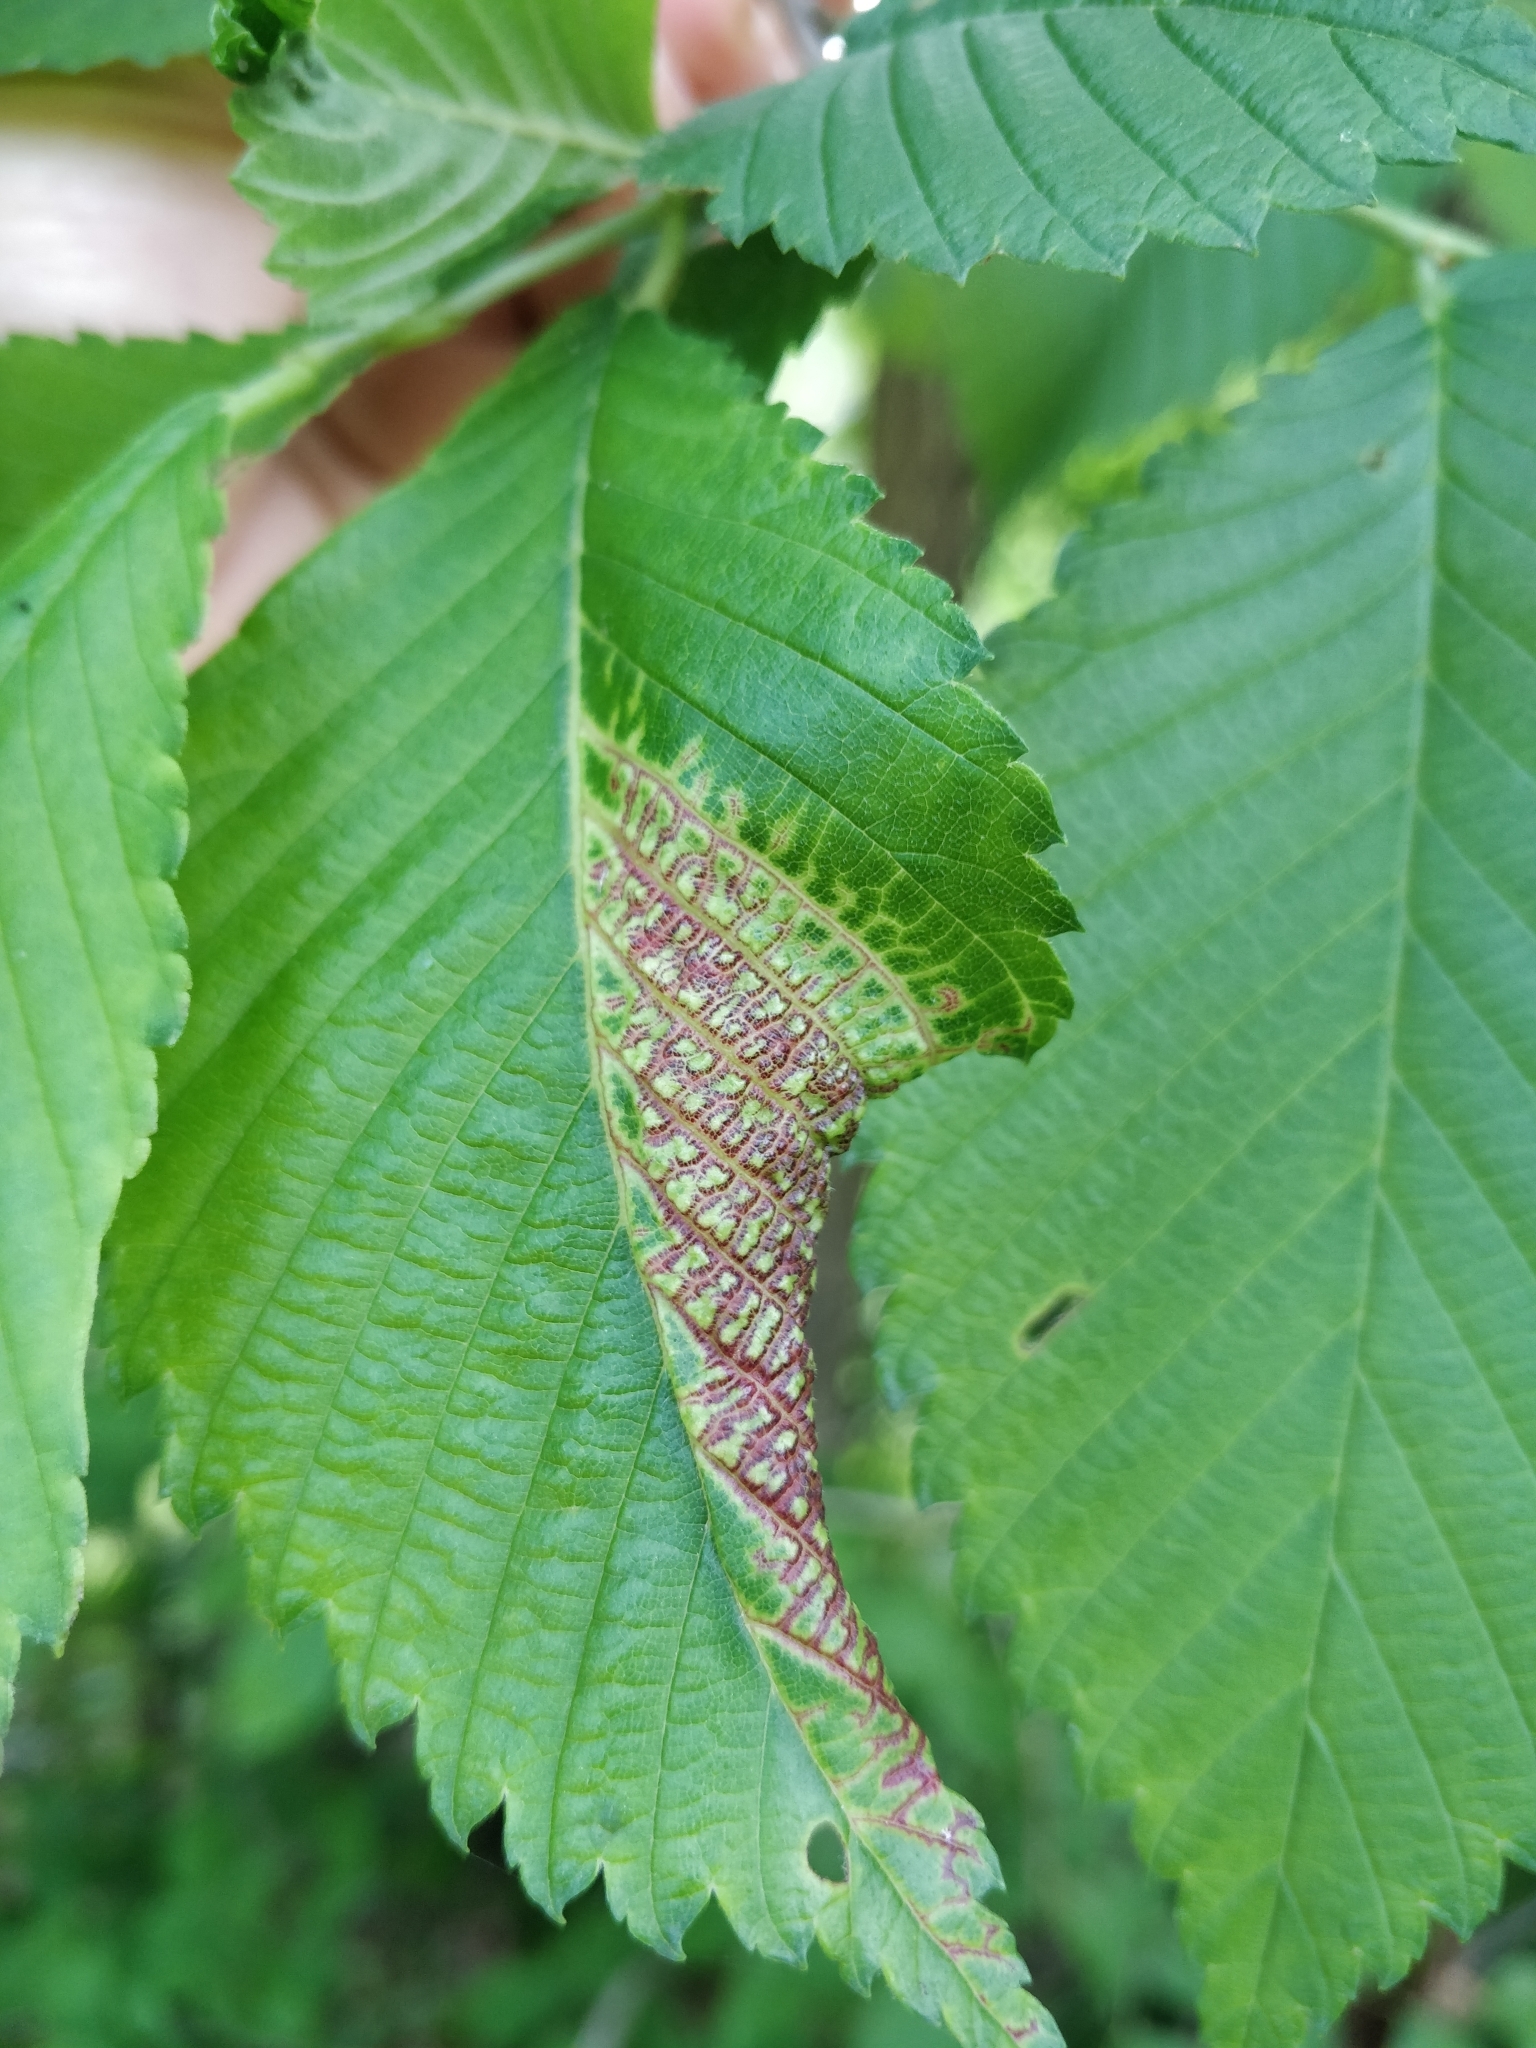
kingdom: Animalia
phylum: Arthropoda
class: Insecta
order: Hemiptera
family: Aphididae
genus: Eriosoma
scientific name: Eriosoma americanum
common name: Woolly elm aphid
